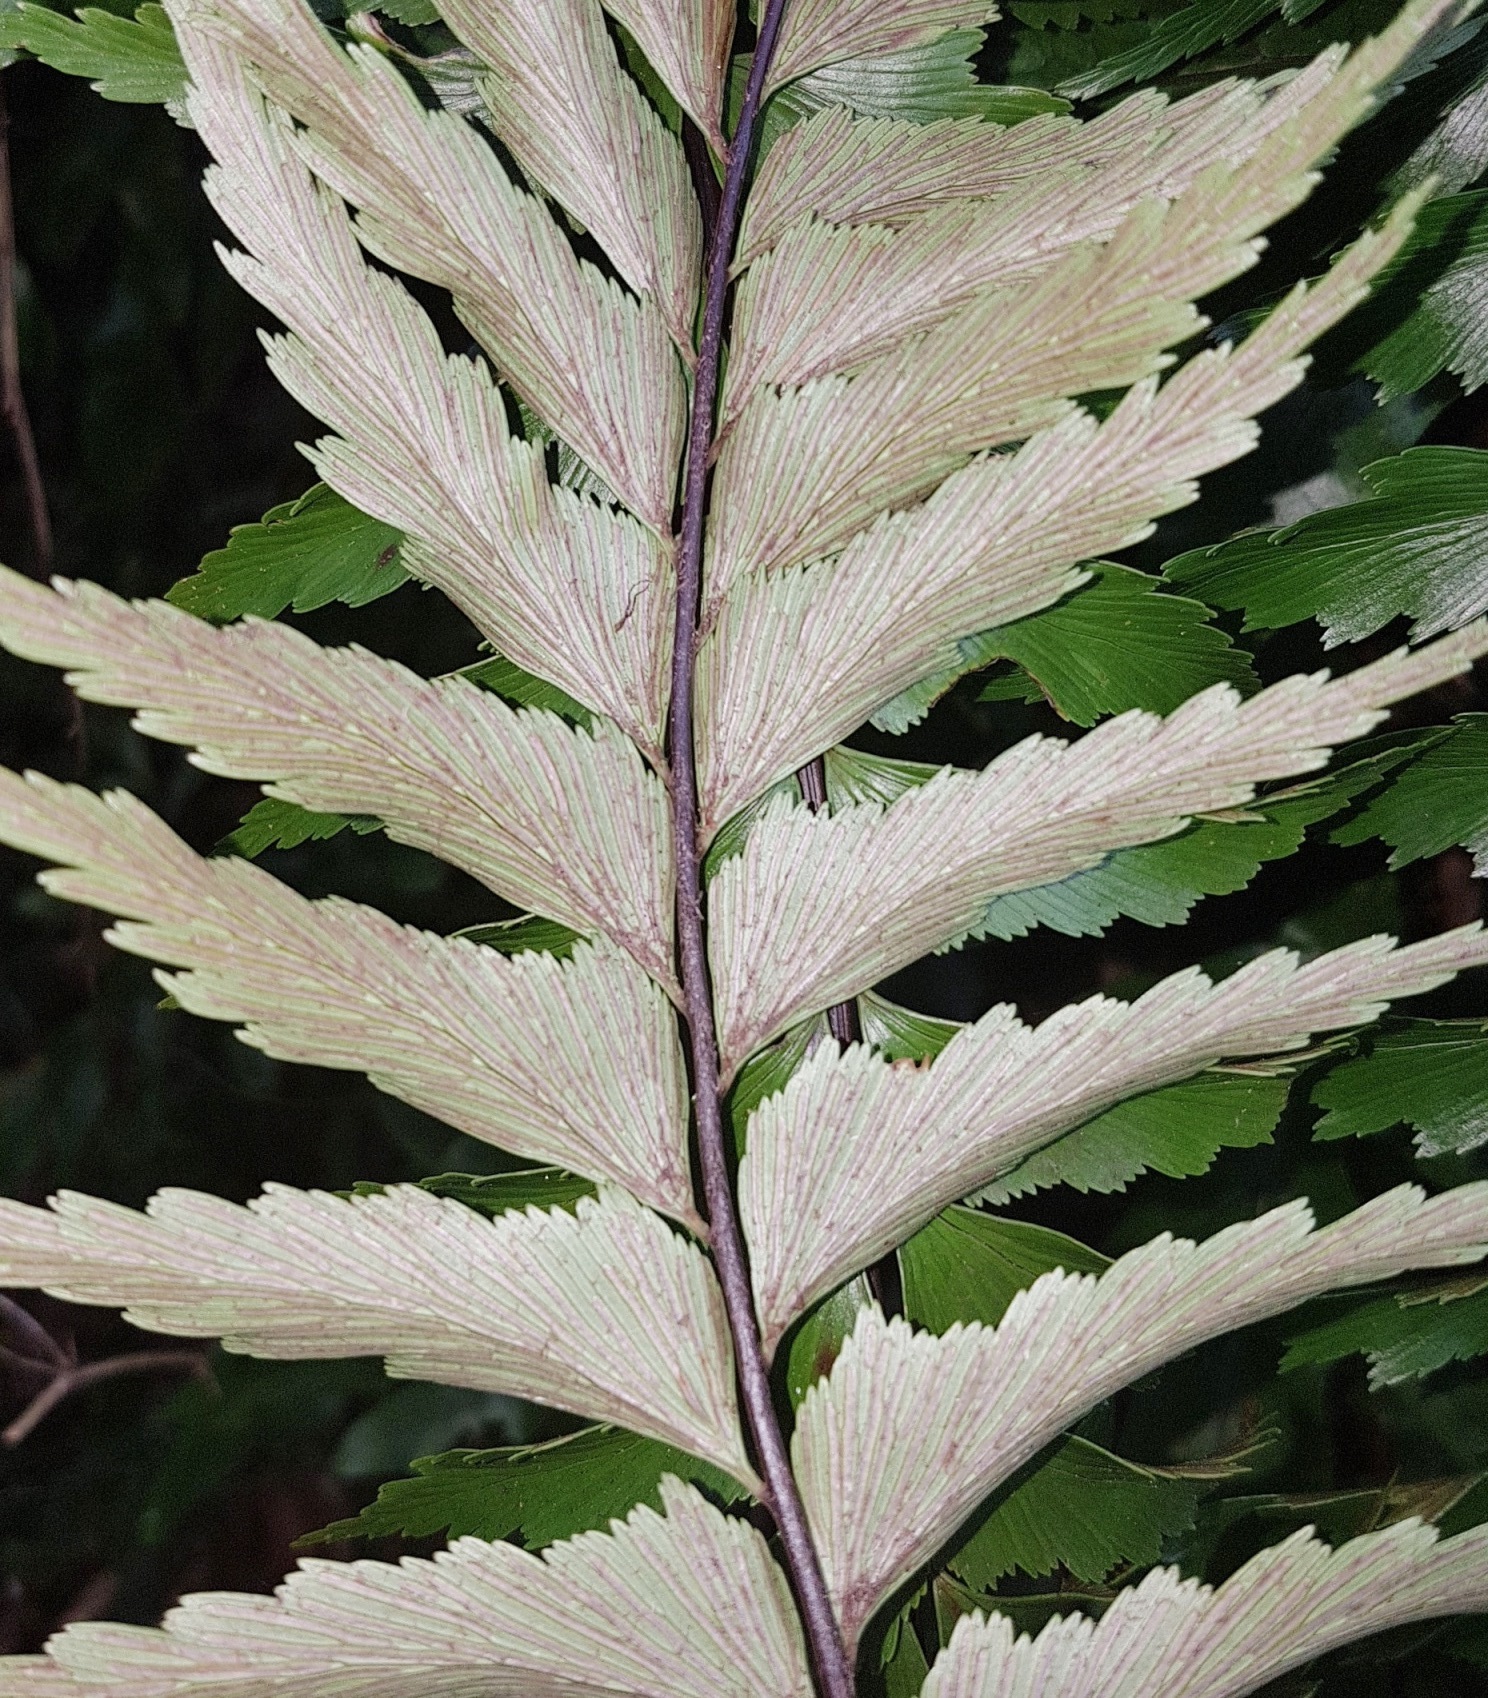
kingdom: Plantae
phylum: Tracheophyta
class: Polypodiopsida
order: Polypodiales
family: Aspleniaceae
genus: Asplenium
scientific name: Asplenium polyodon
